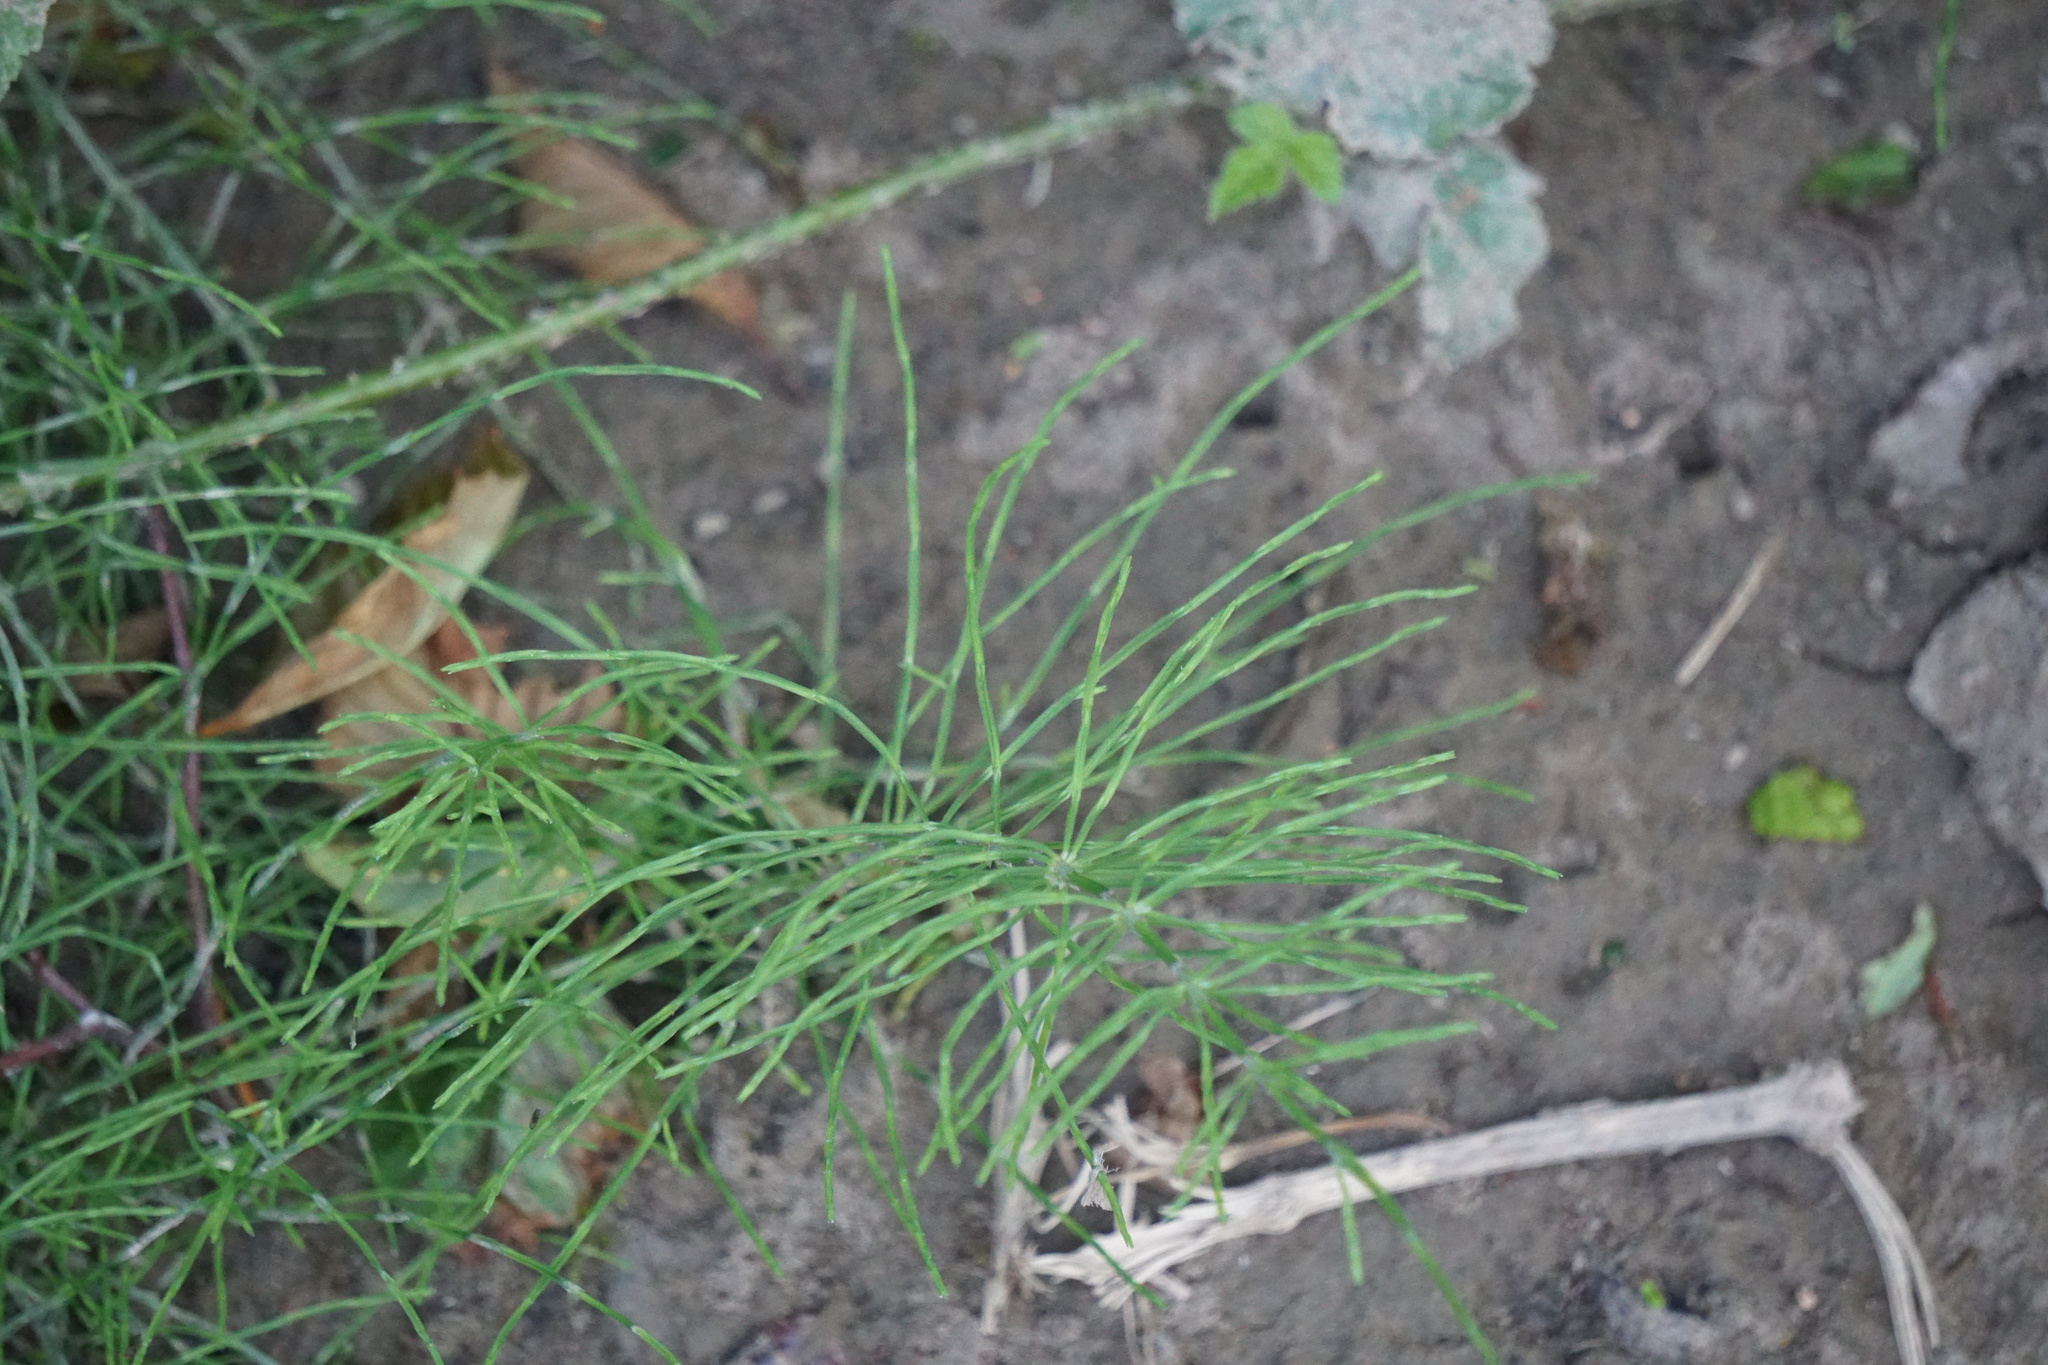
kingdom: Plantae
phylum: Tracheophyta
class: Polypodiopsida
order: Equisetales
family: Equisetaceae
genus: Equisetum
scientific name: Equisetum arvense
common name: Field horsetail
